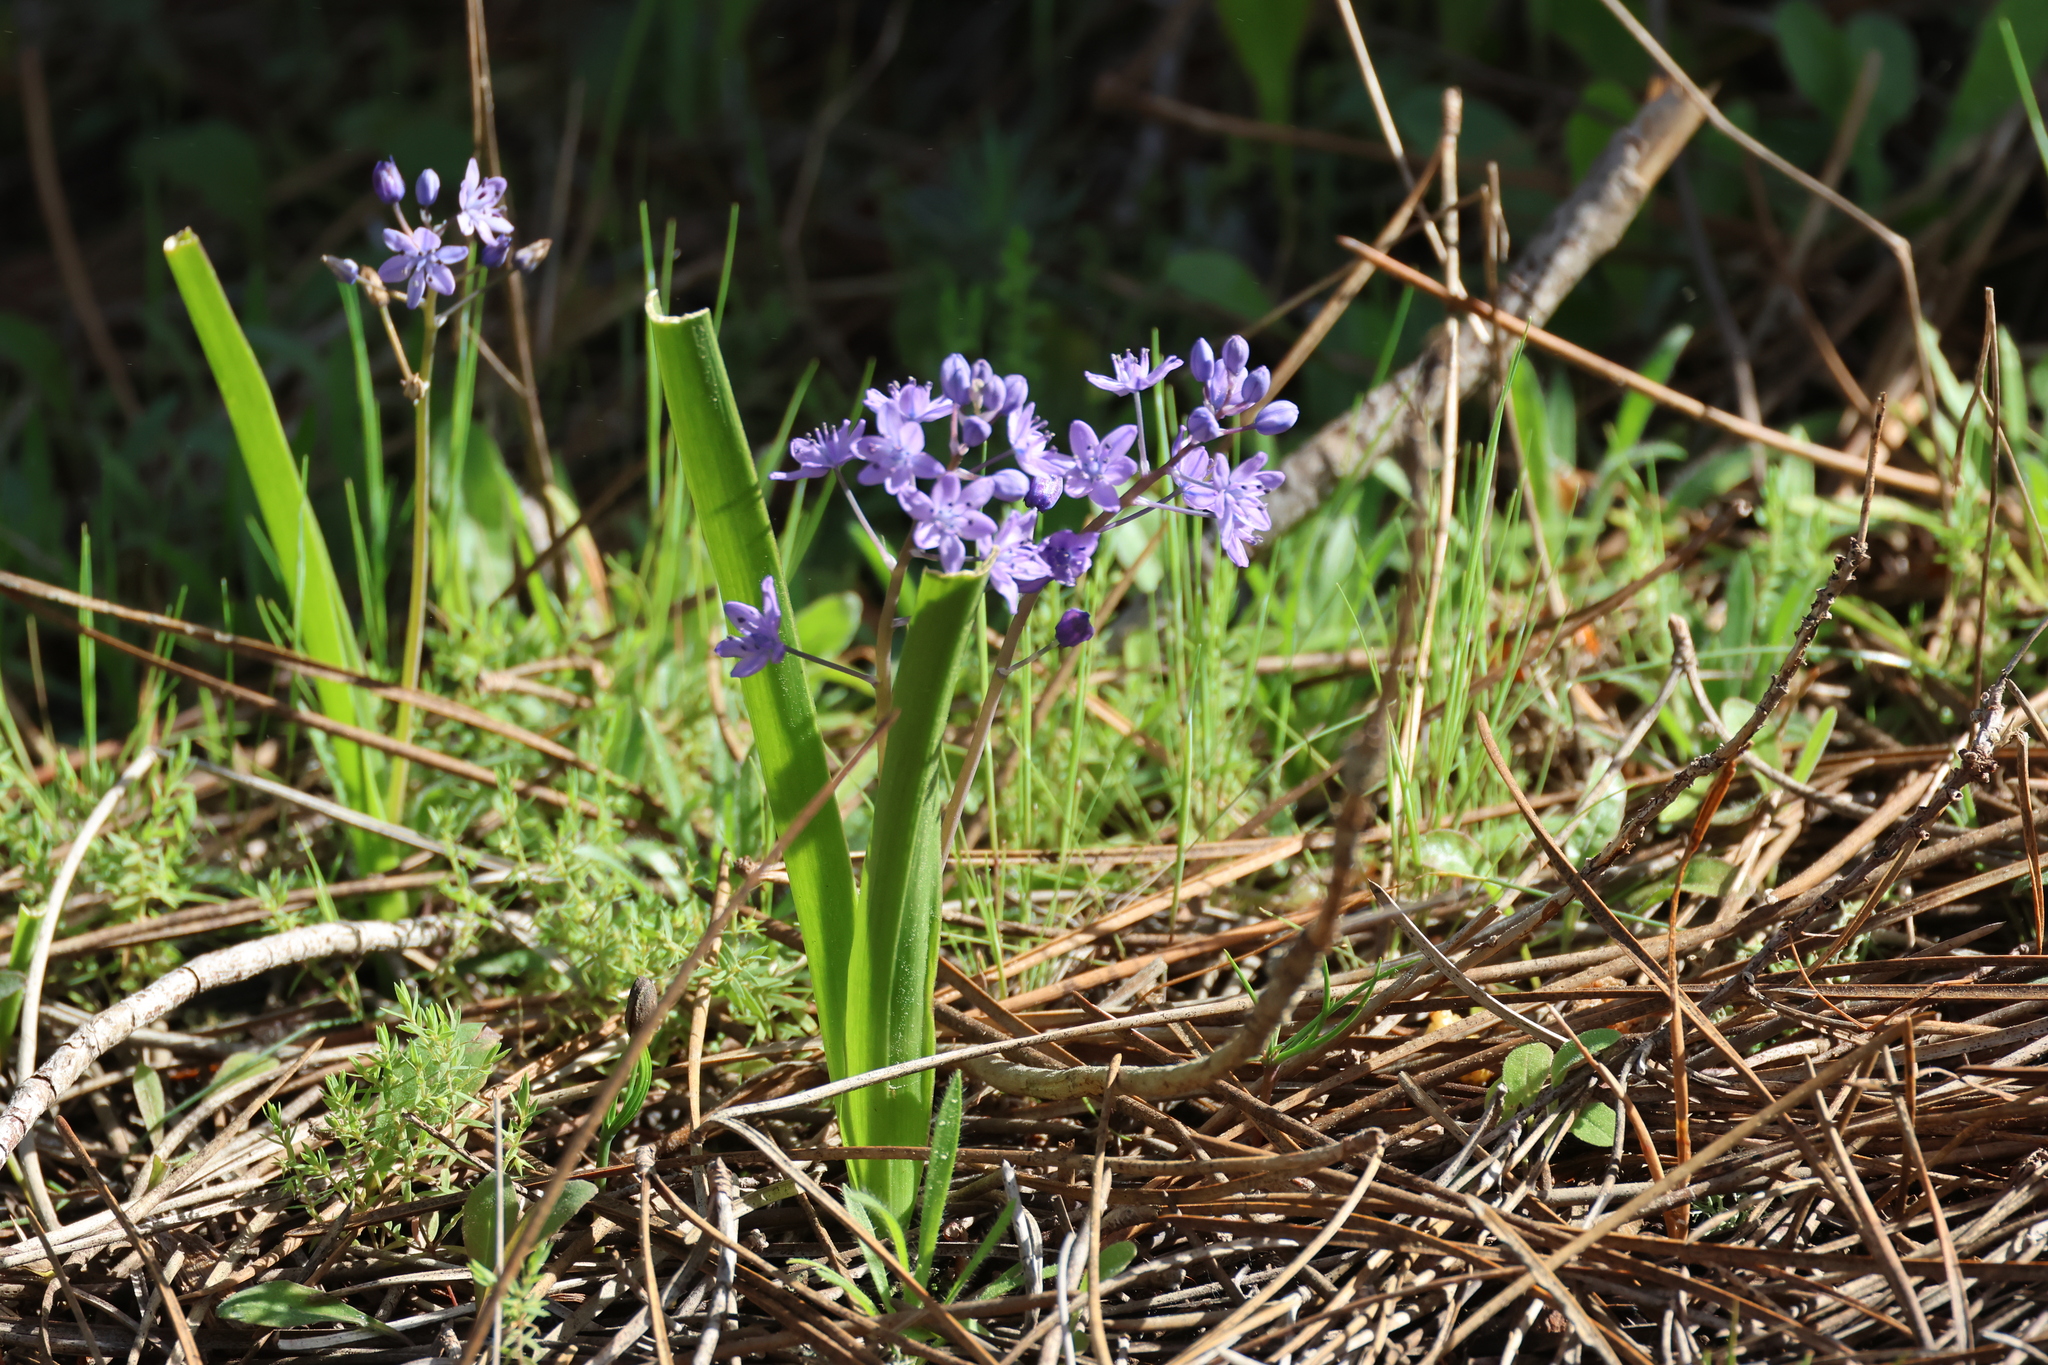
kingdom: Plantae
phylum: Tracheophyta
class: Liliopsida
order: Asparagales
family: Asparagaceae
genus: Scilla
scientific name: Scilla monophyllos
